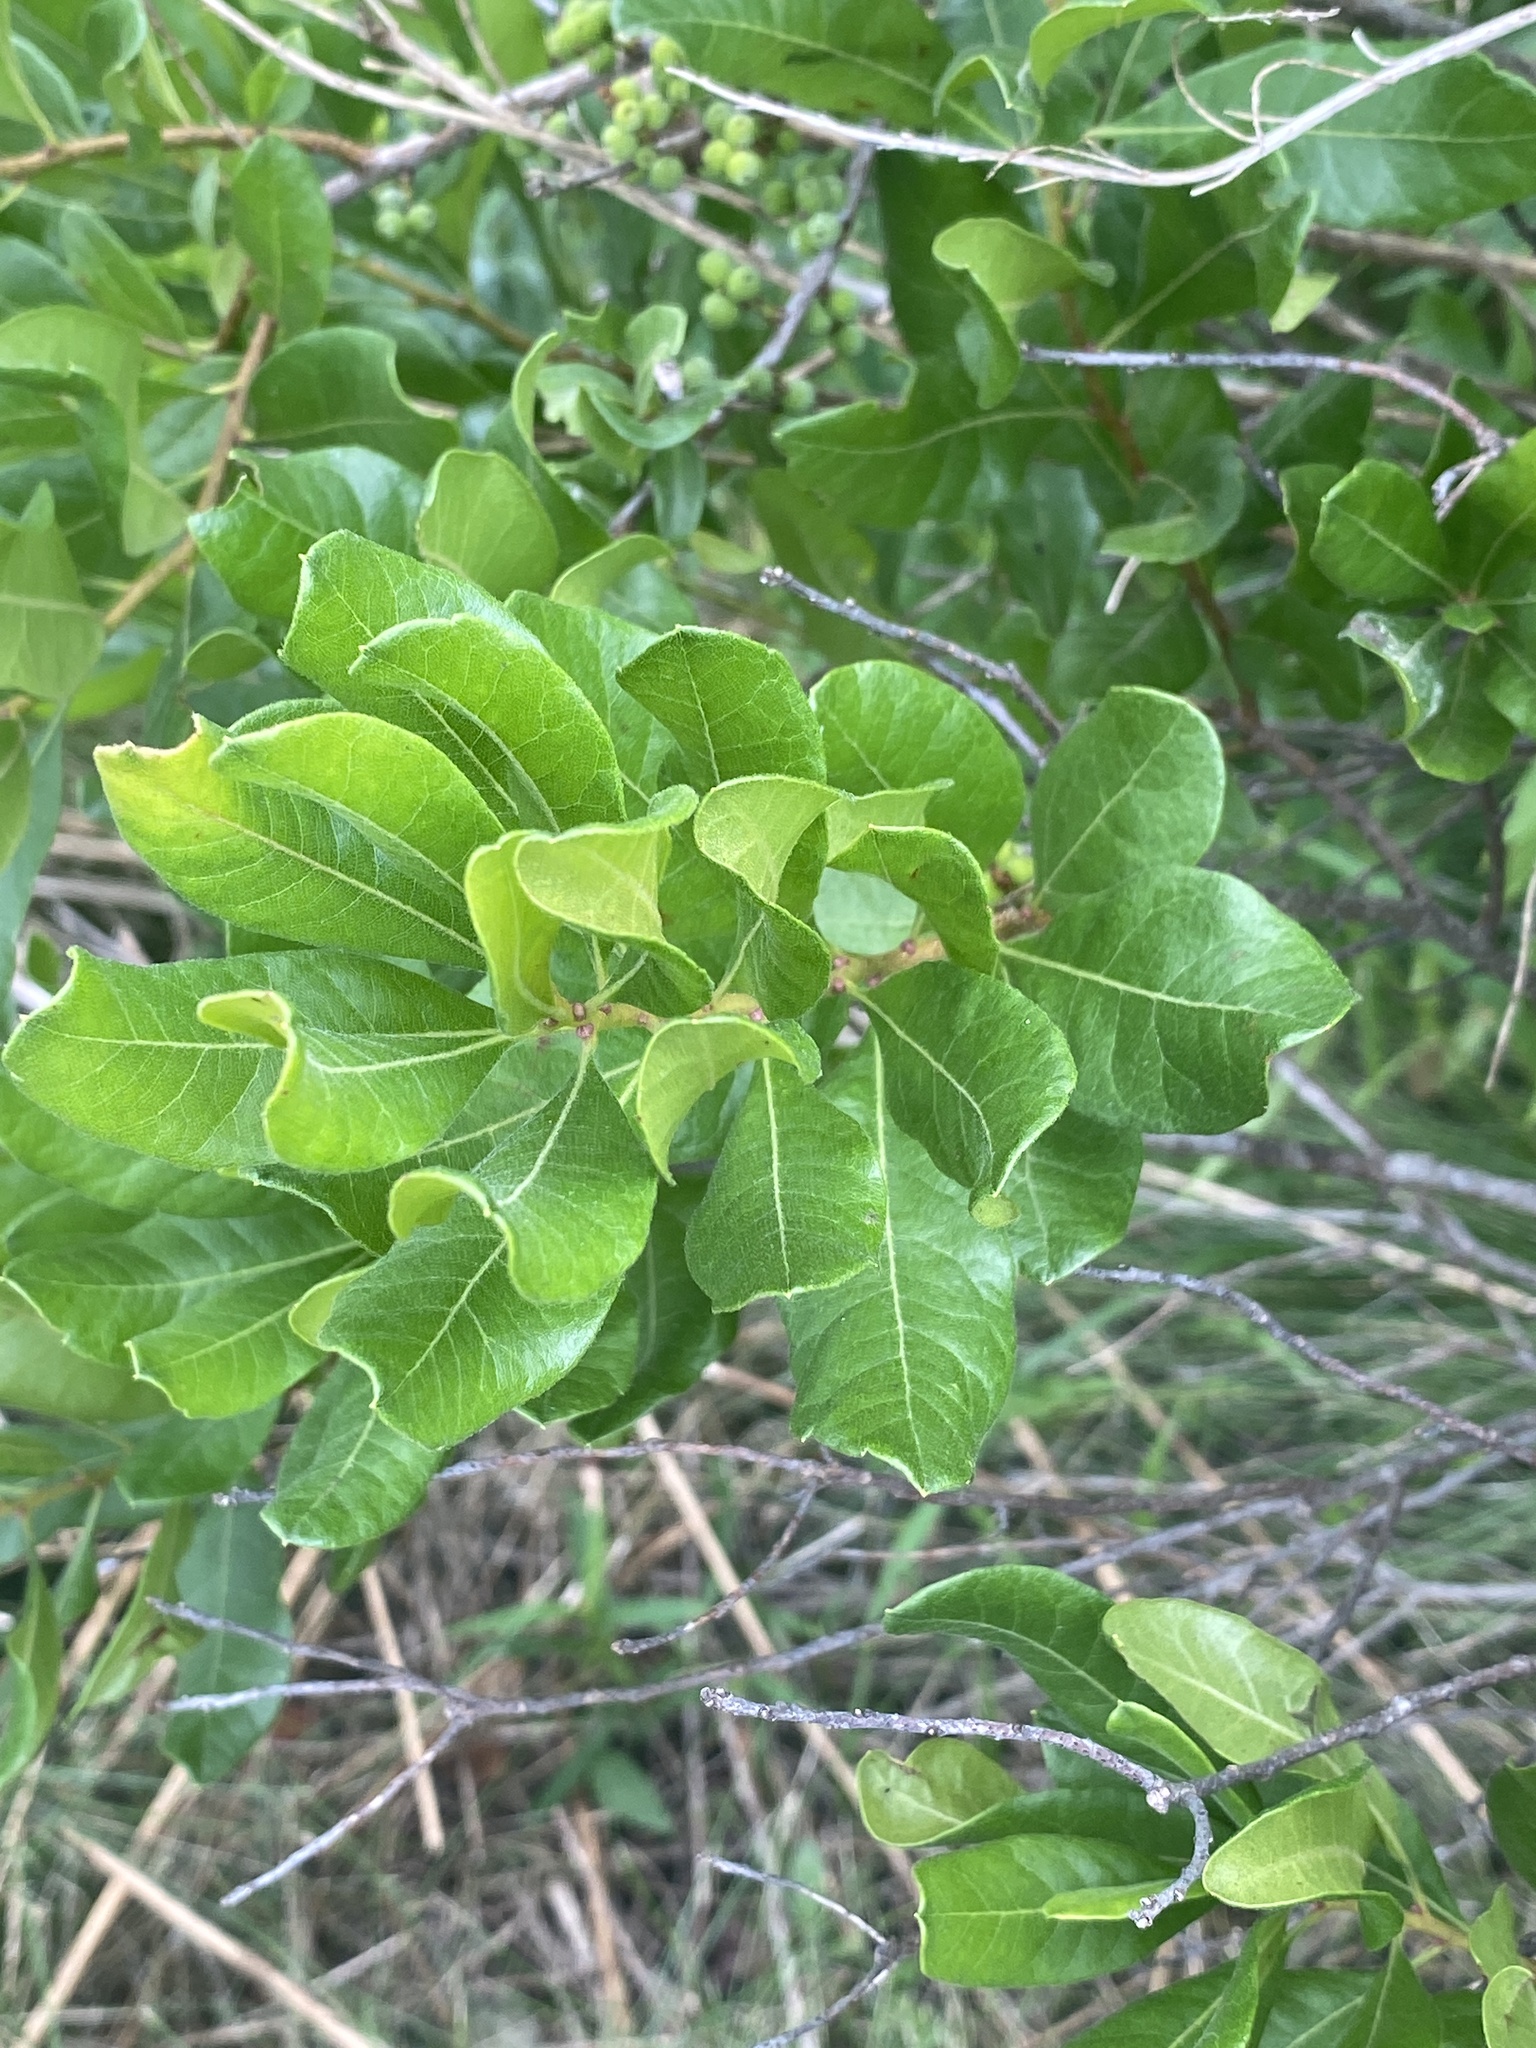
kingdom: Plantae
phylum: Tracheophyta
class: Magnoliopsida
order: Fagales
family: Myricaceae
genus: Morella
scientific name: Morella pensylvanica
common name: Northern bayberry
